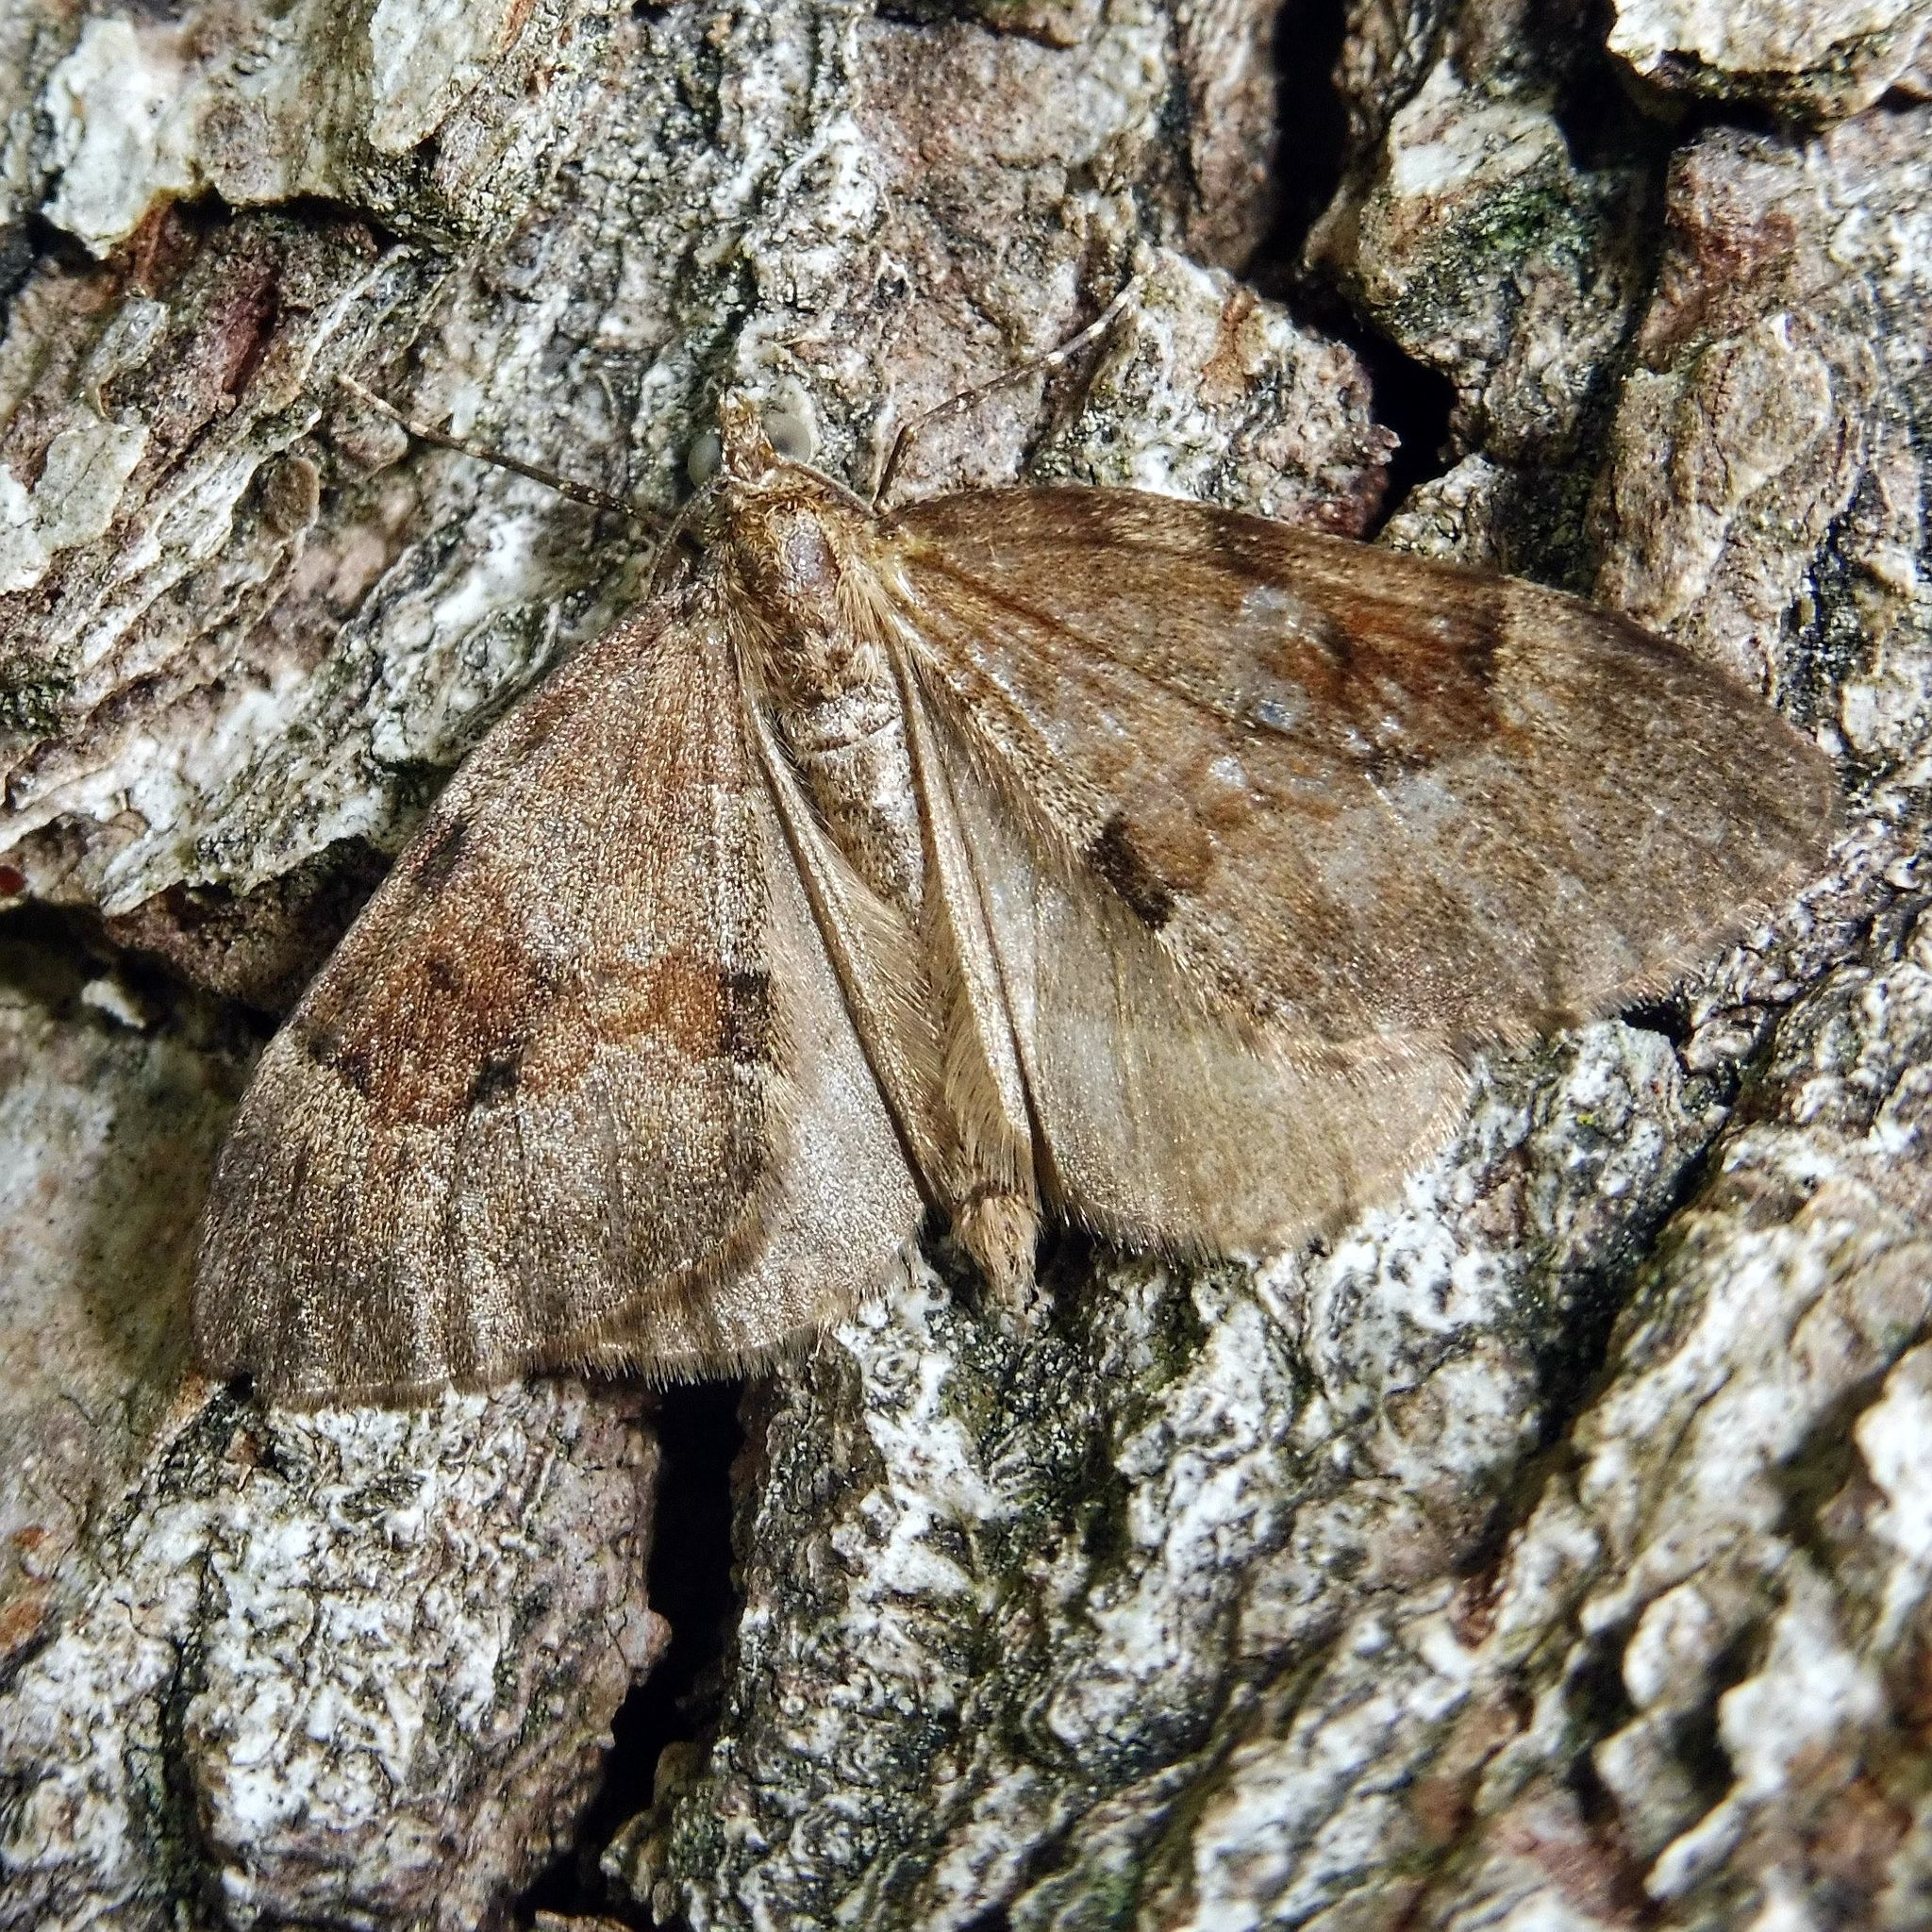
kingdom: Animalia
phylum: Arthropoda
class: Insecta
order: Lepidoptera
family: Geometridae
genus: Thera
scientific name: Thera obeliscata
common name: Grey pine carpet
